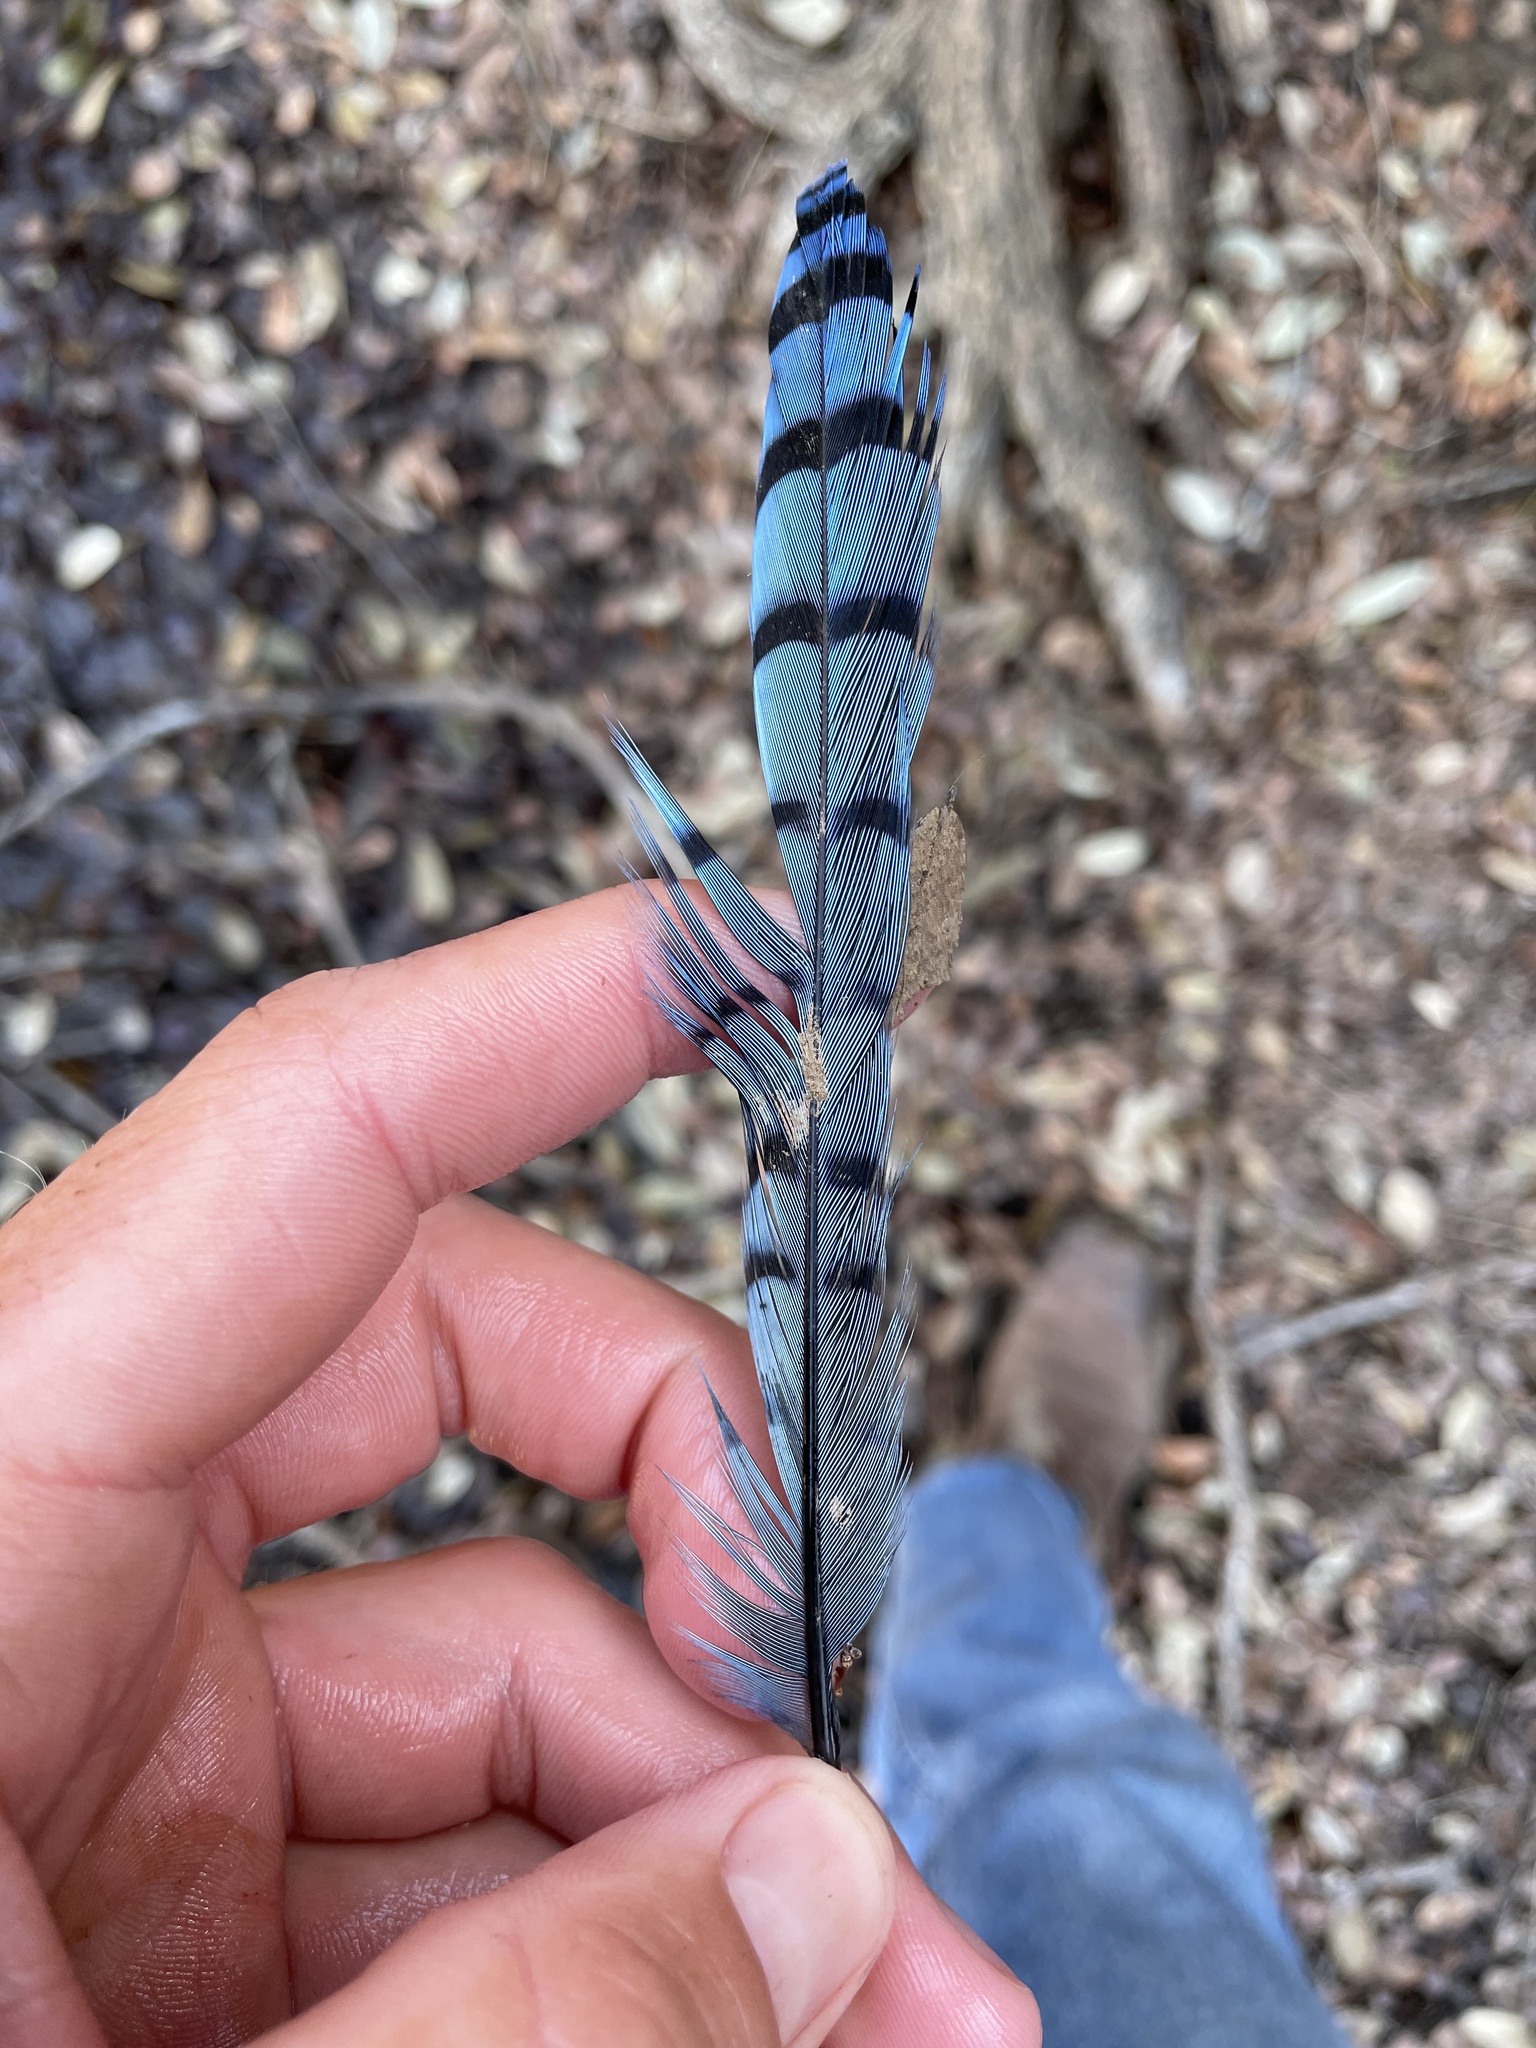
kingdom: Animalia
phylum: Chordata
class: Aves
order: Passeriformes
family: Corvidae
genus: Cyanocitta
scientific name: Cyanocitta cristata
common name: Blue jay
